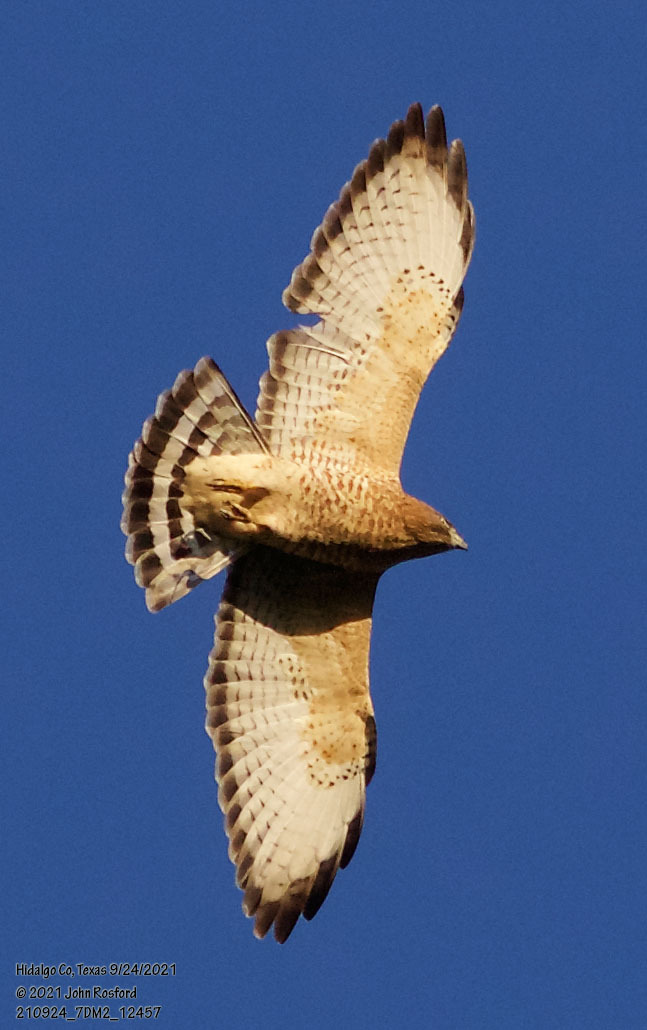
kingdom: Animalia
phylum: Chordata
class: Aves
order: Accipitriformes
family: Accipitridae
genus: Buteo
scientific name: Buteo platypterus
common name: Broad-winged hawk
